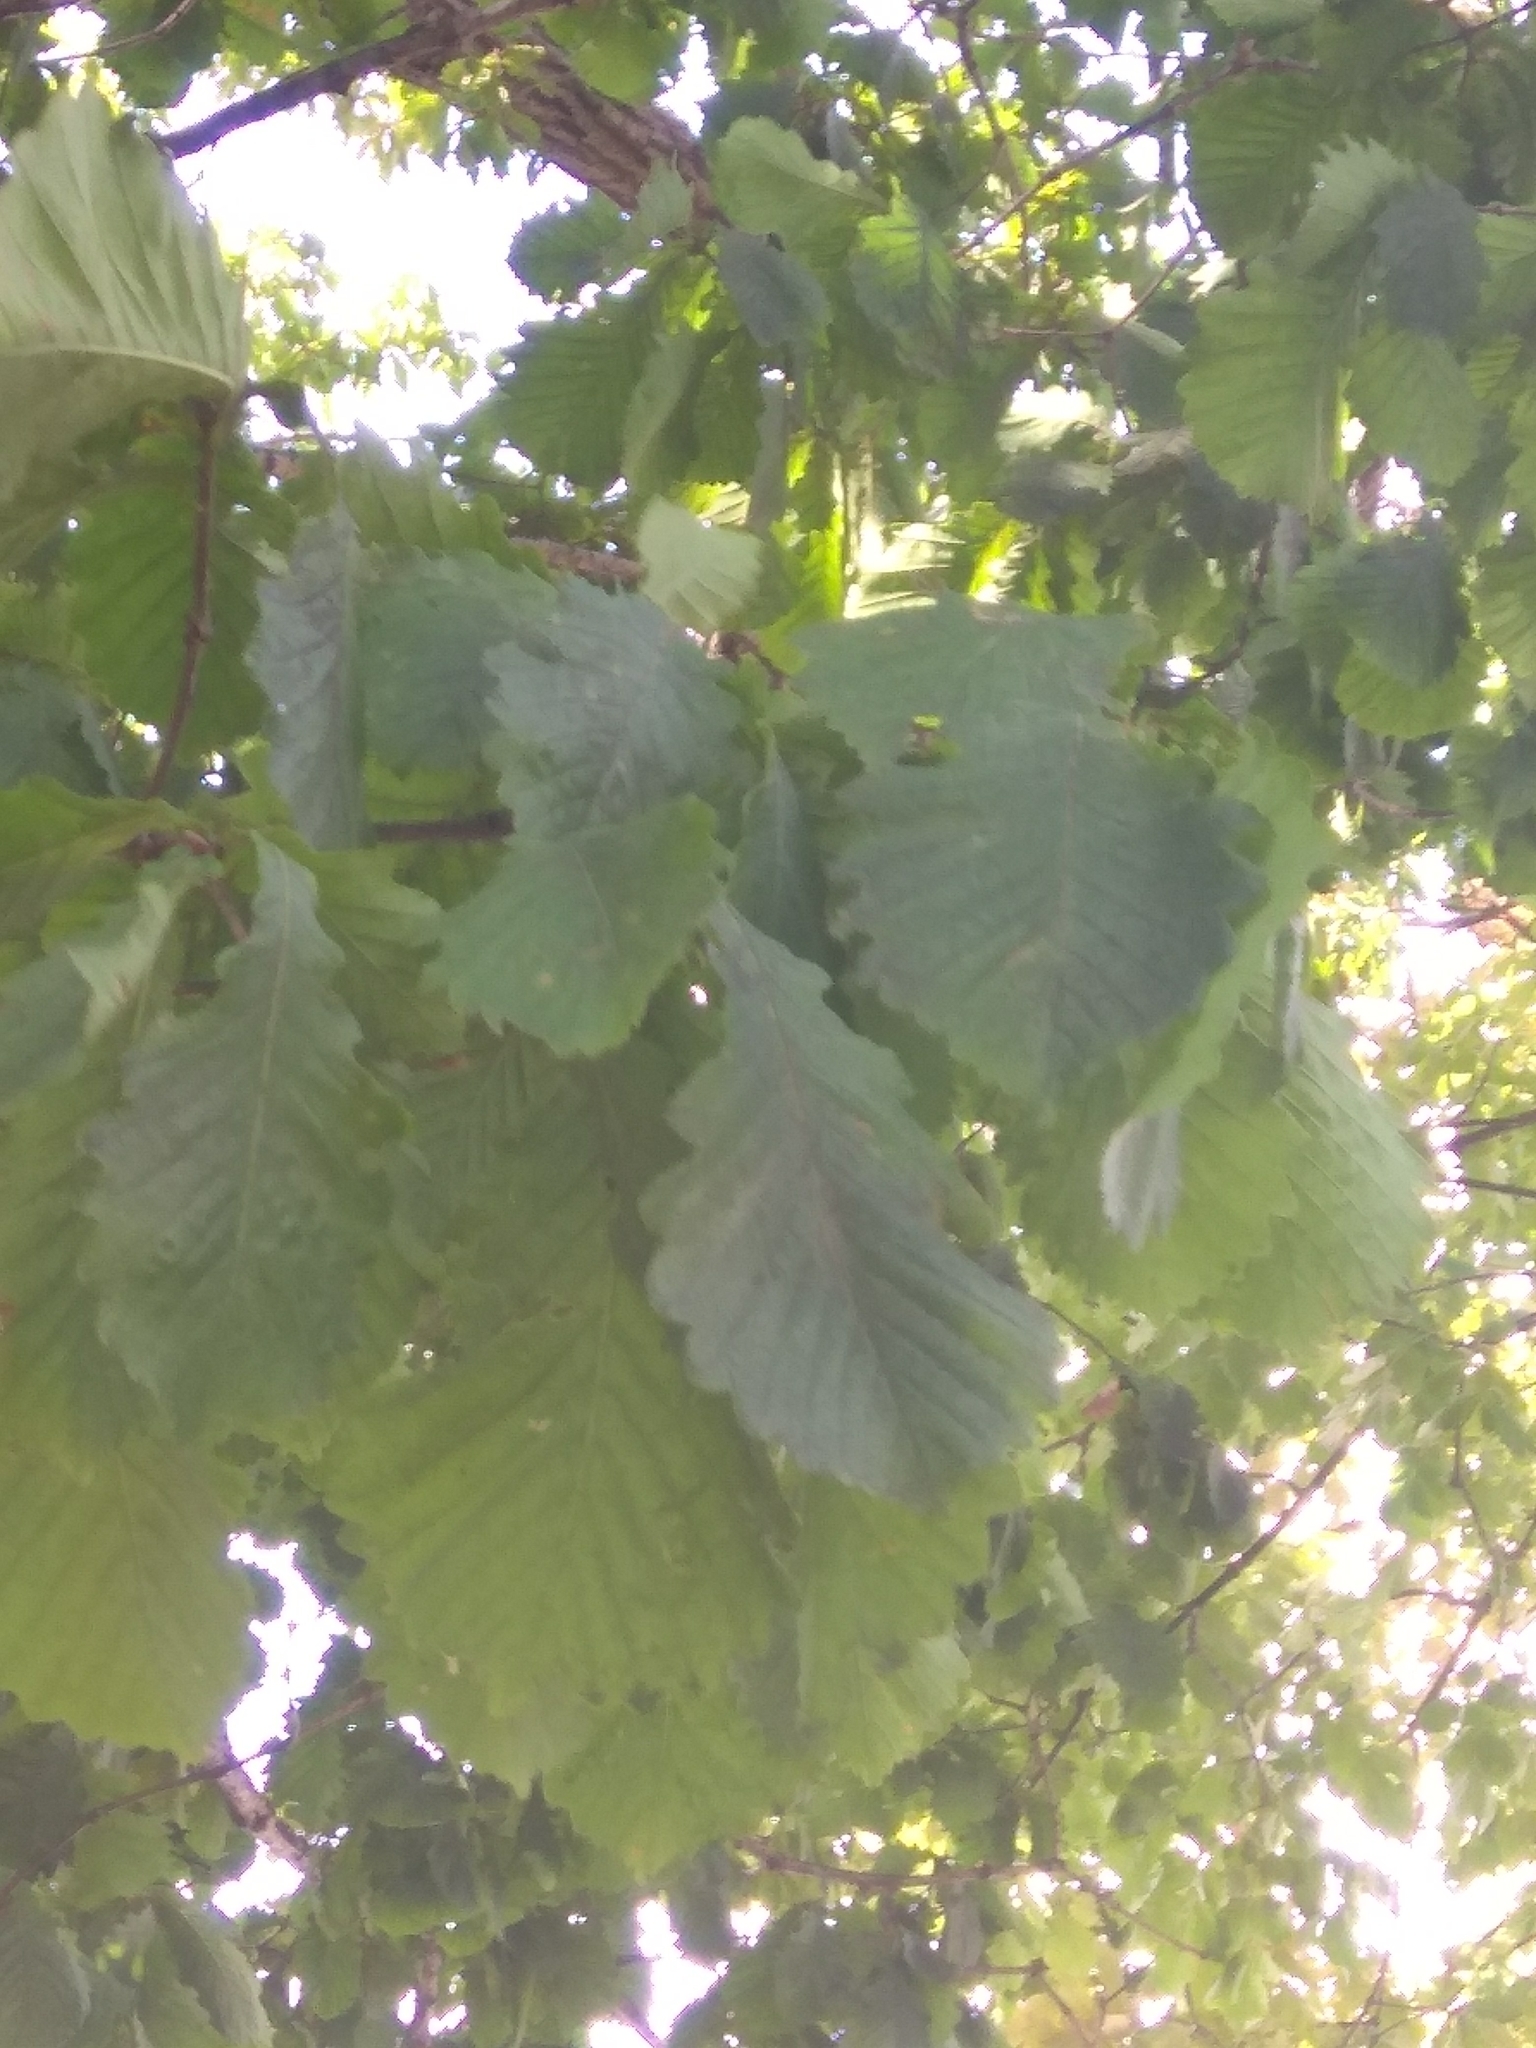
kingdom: Plantae
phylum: Tracheophyta
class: Magnoliopsida
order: Fagales
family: Fagaceae
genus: Quercus
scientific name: Quercus mongolica
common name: Mongolian oak
